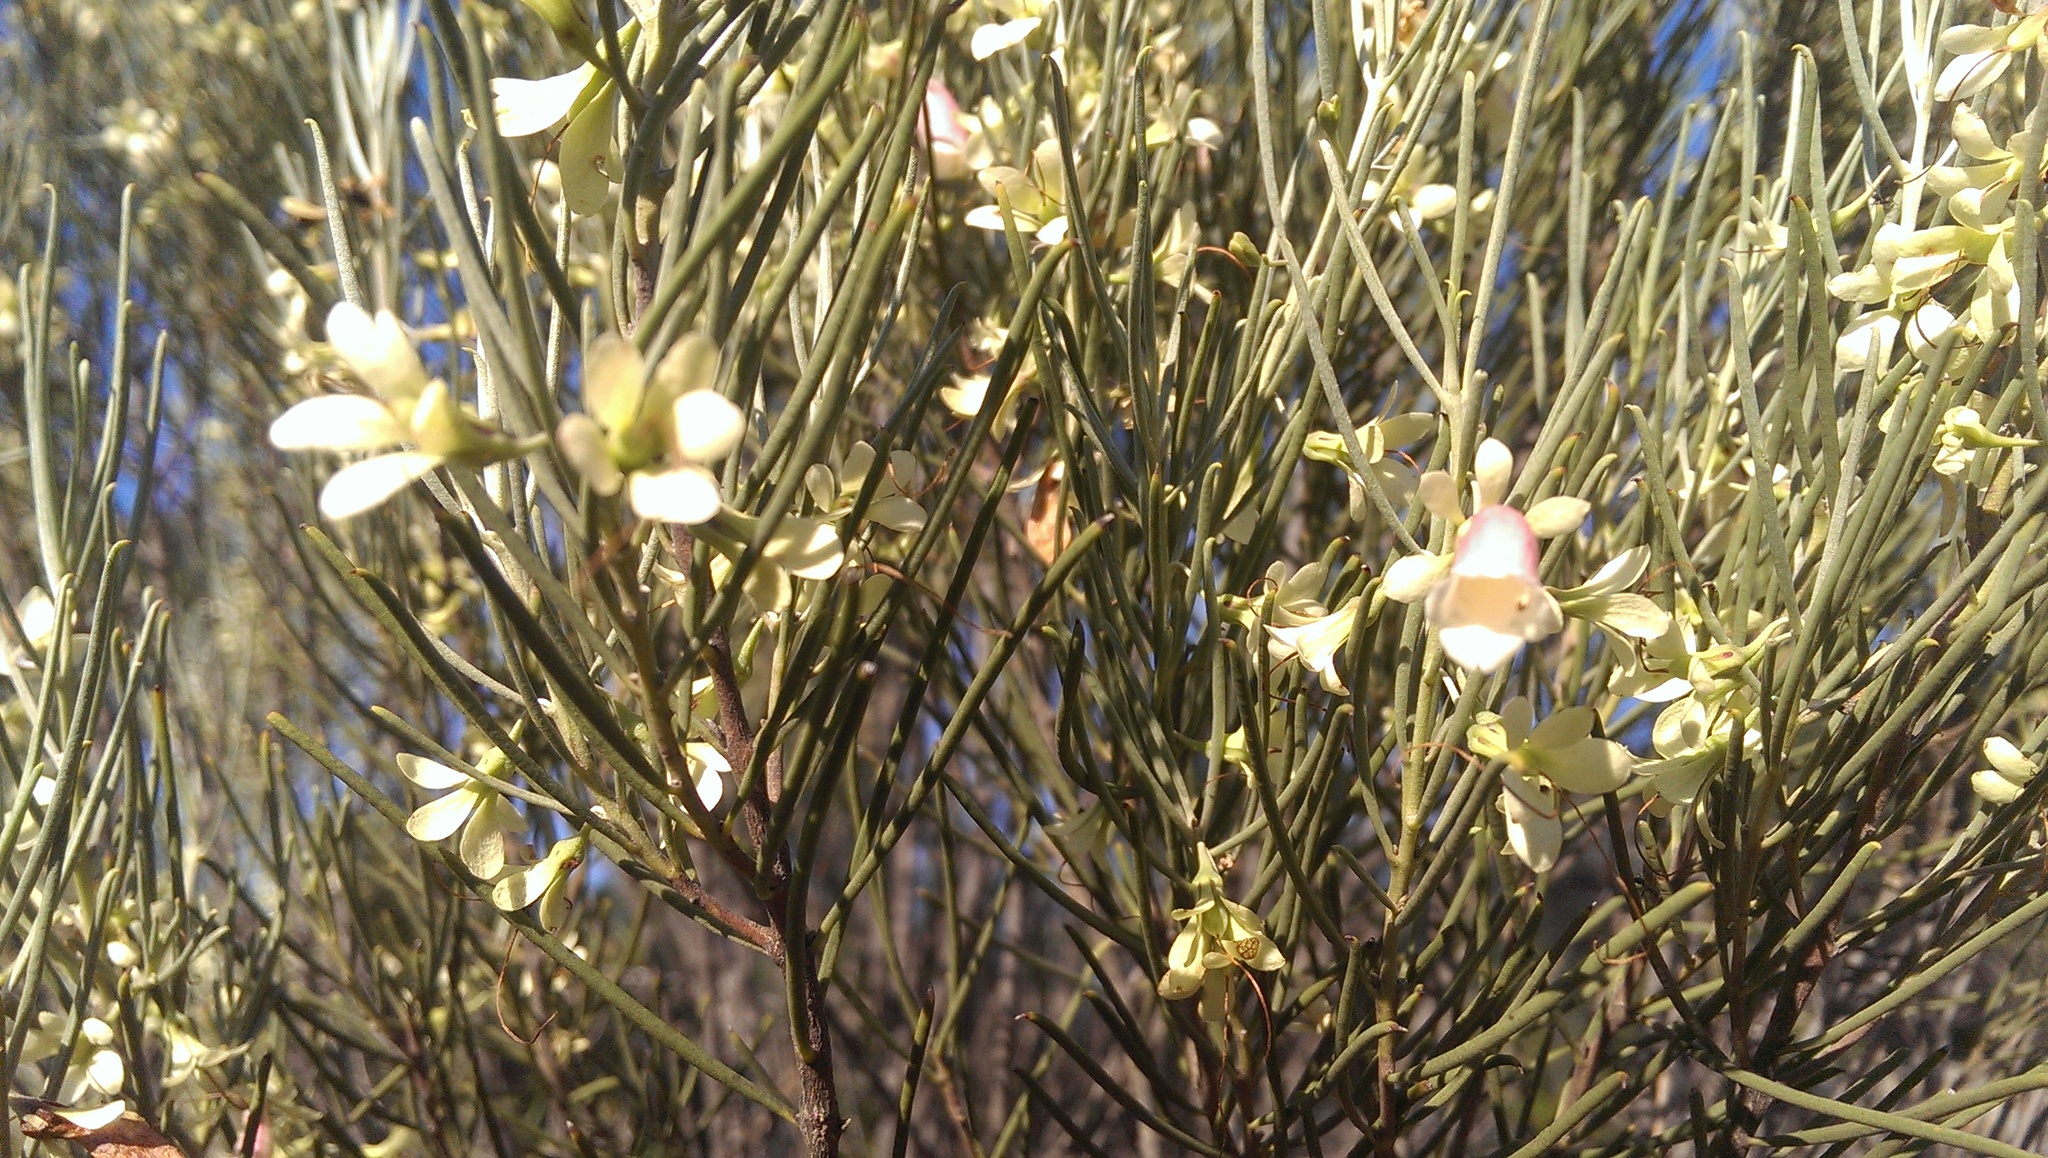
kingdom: Plantae
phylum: Tracheophyta
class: Magnoliopsida
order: Lamiales
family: Scrophulariaceae
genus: Eremophila
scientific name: Eremophila oppositifolia
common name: Mountain-sandalwood
